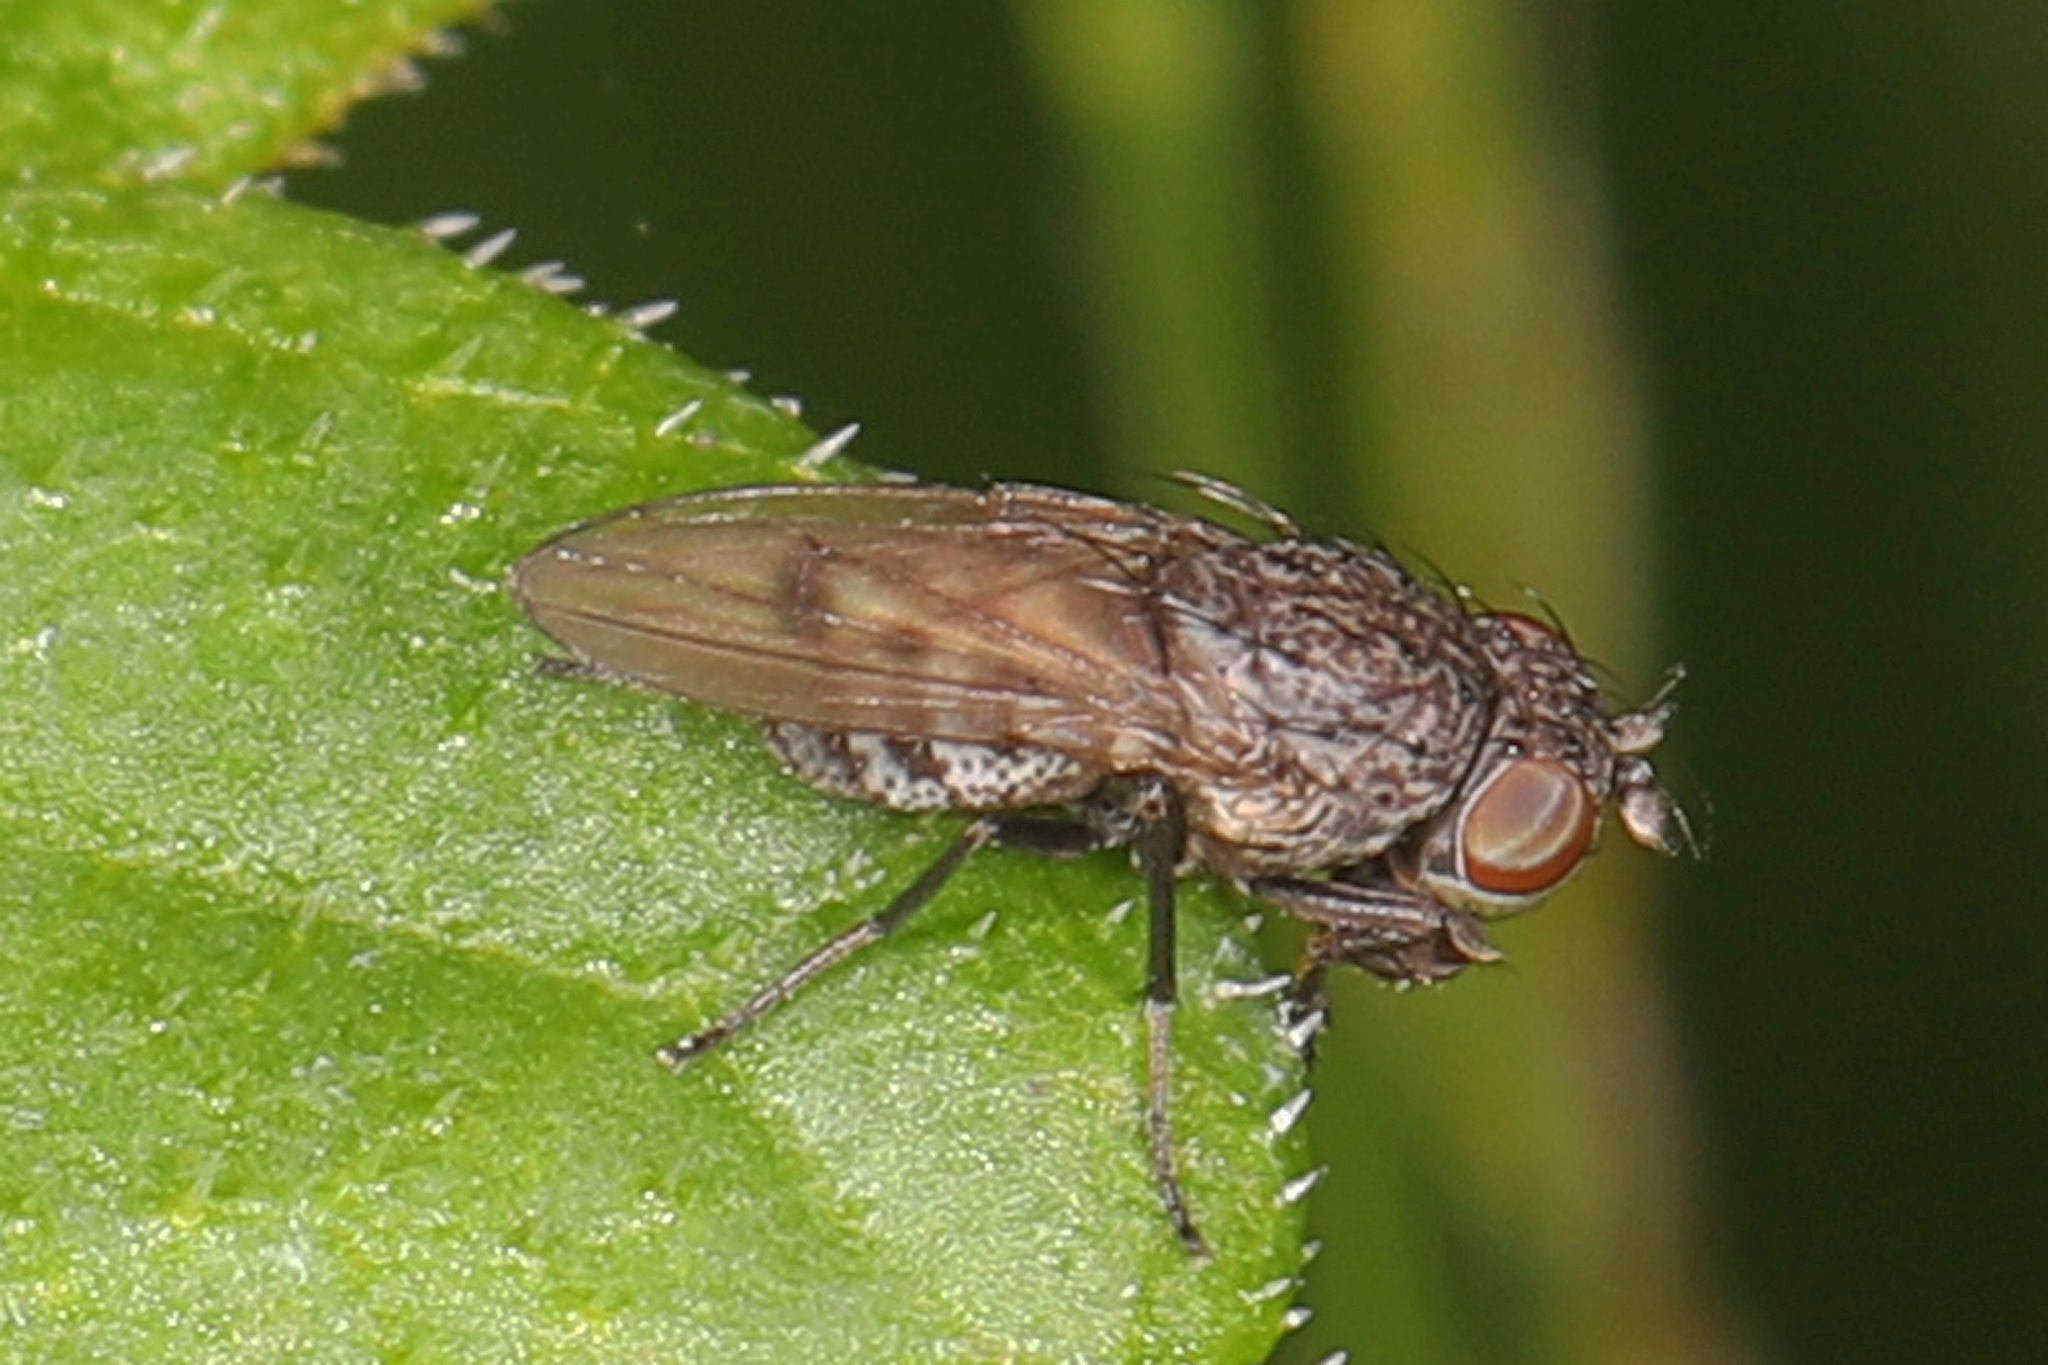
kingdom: Animalia
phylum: Arthropoda
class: Insecta
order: Diptera
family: Ephydridae
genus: Paralimna
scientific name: Paralimna punctipennis
